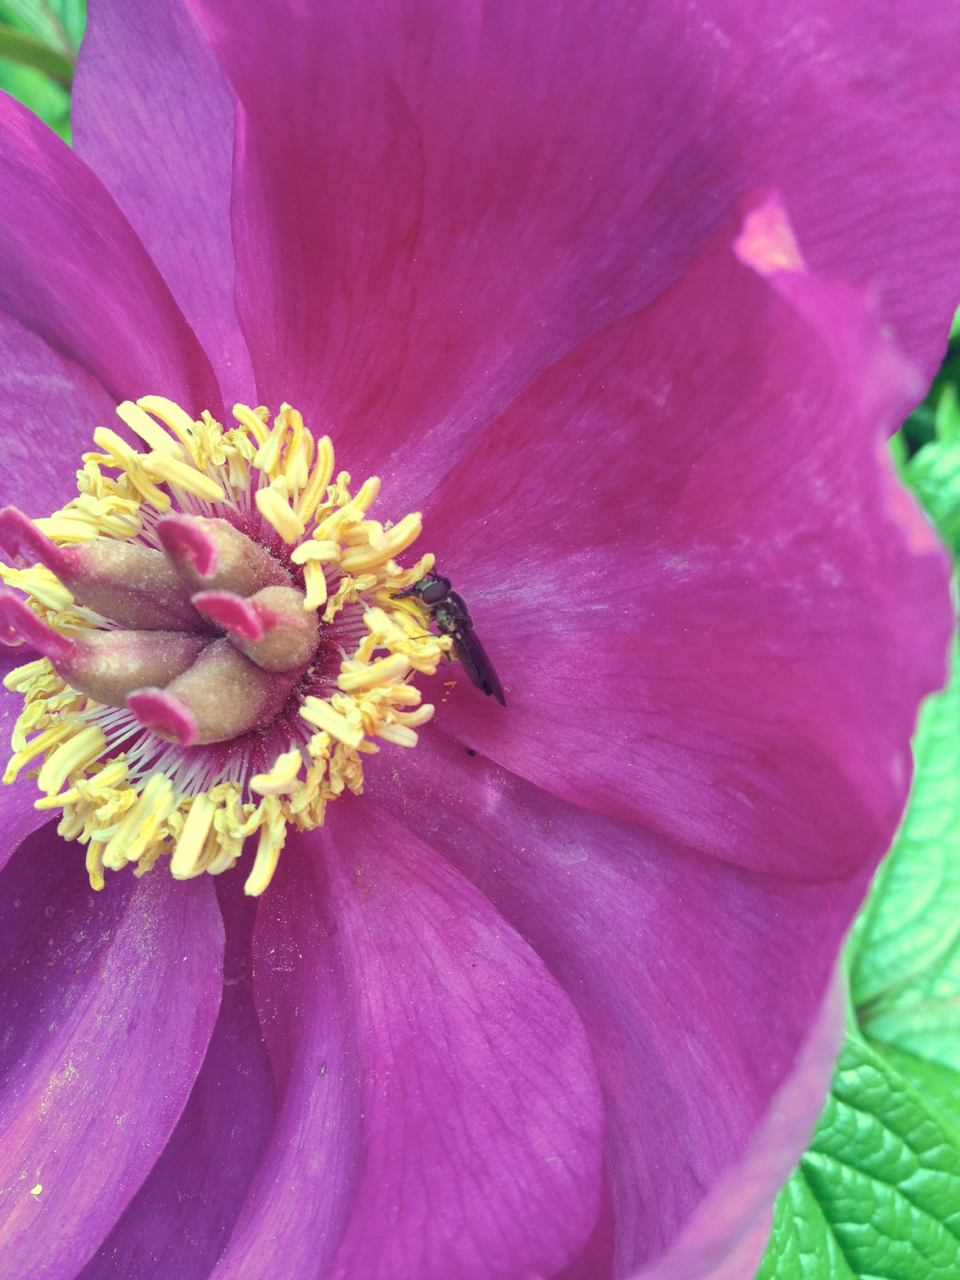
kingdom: Animalia
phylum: Arthropoda
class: Insecta
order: Diptera
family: Syrphidae
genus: Platycheirus
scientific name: Platycheirus
